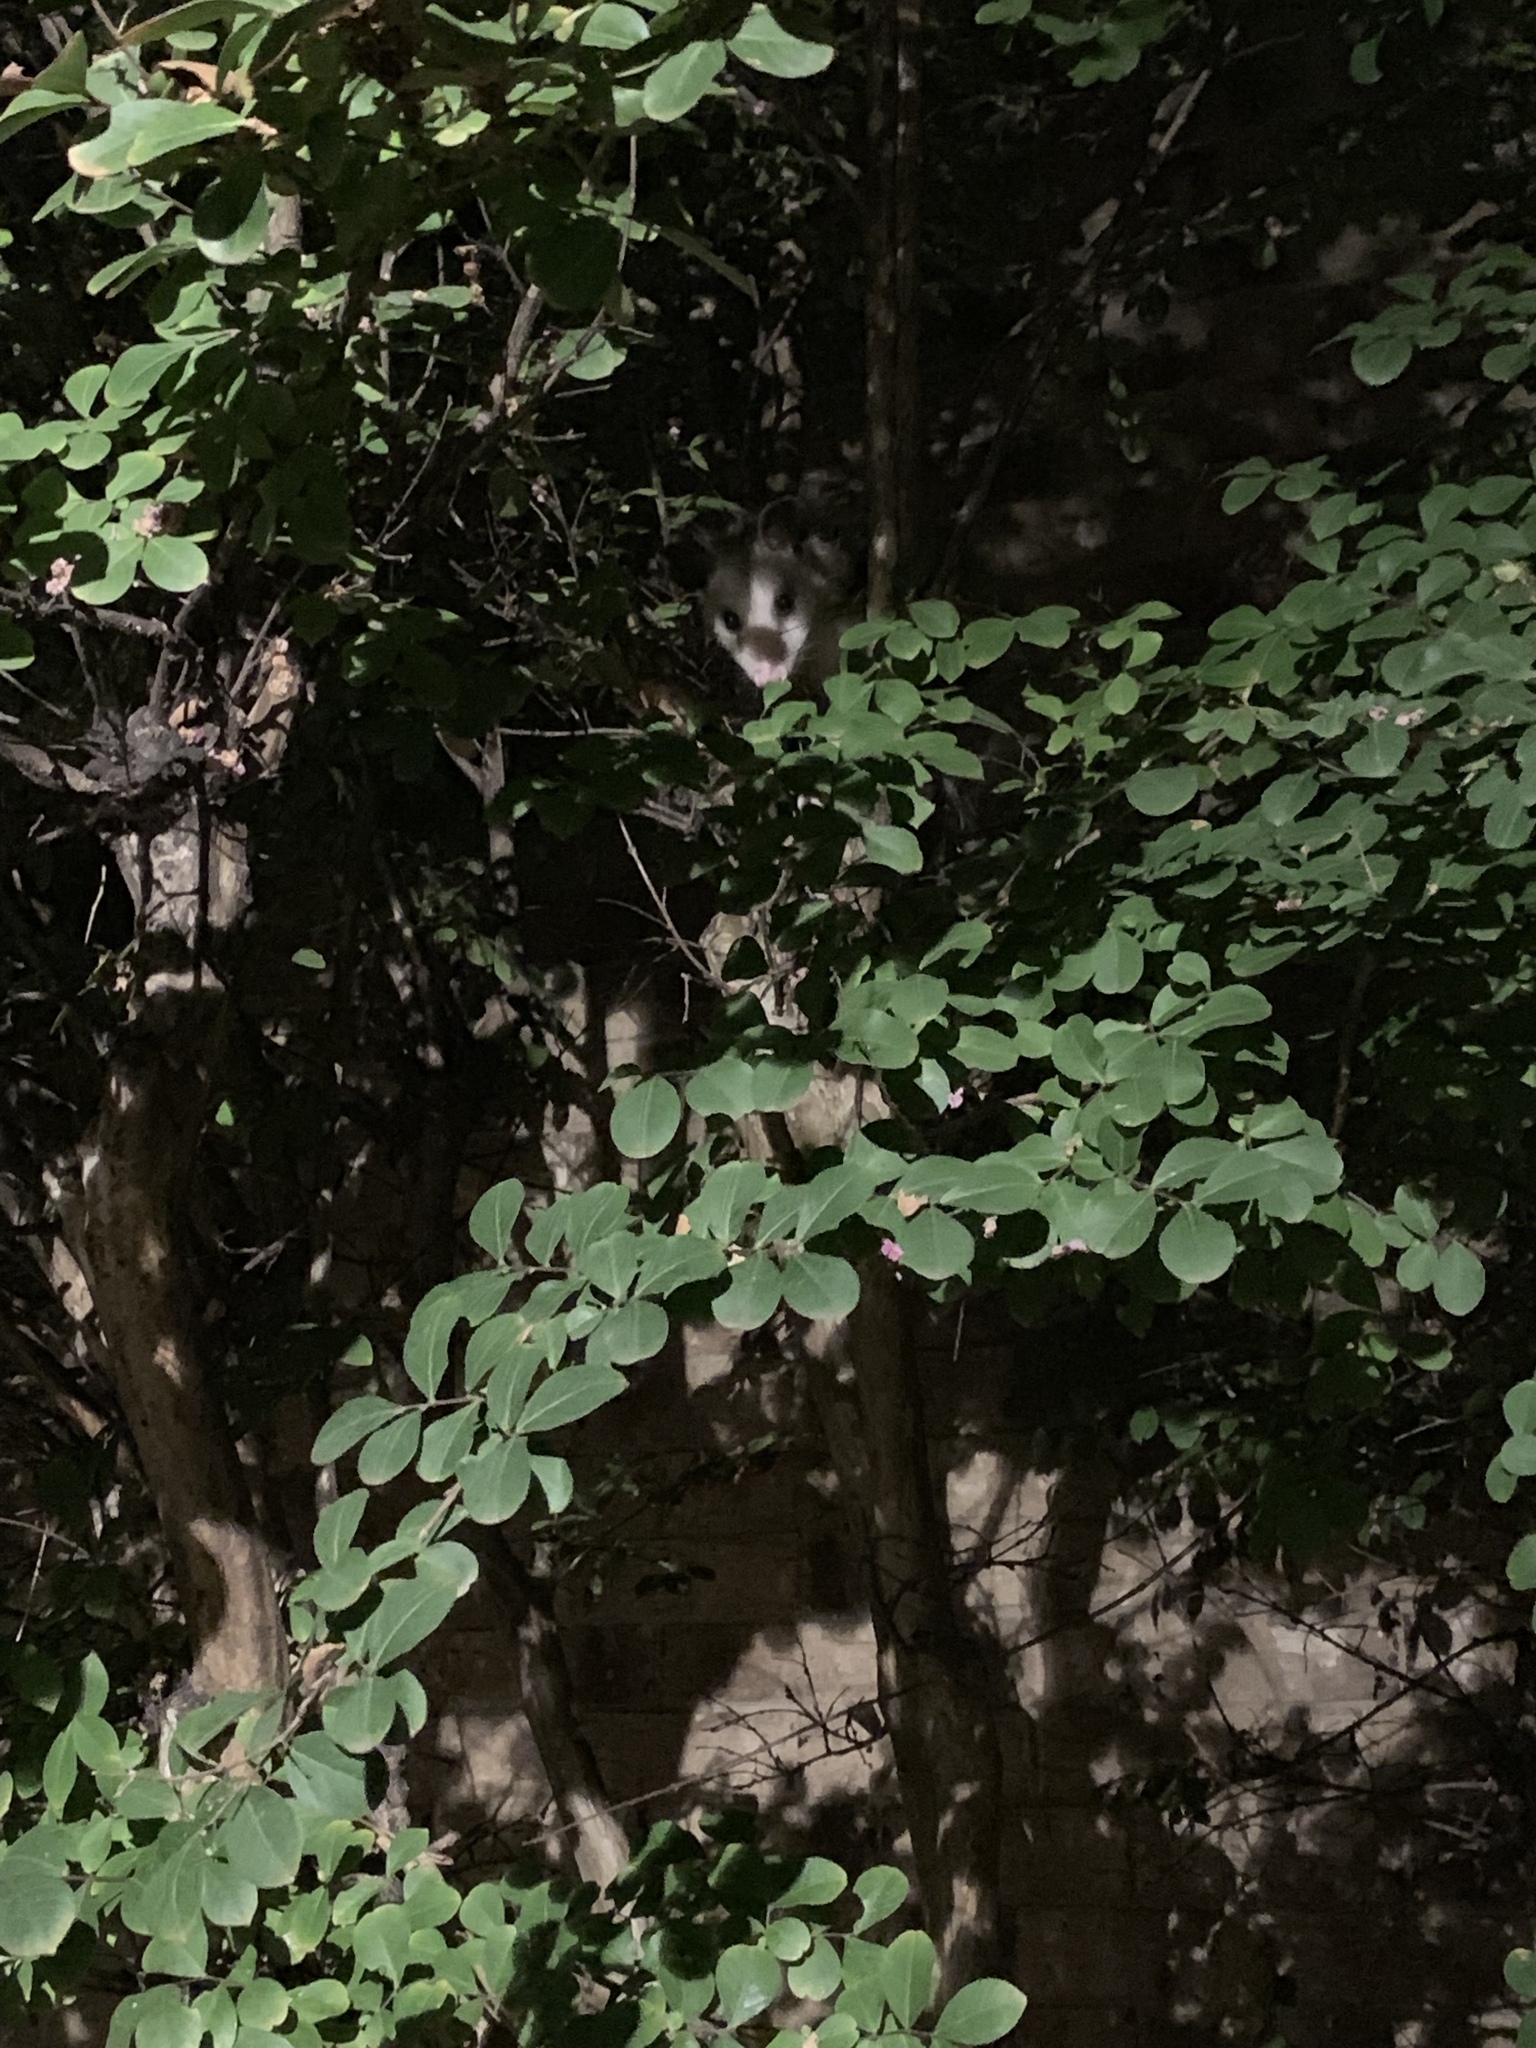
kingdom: Animalia
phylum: Chordata
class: Mammalia
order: Didelphimorphia
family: Didelphidae
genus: Didelphis
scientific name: Didelphis virginiana
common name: Virginia opossum
